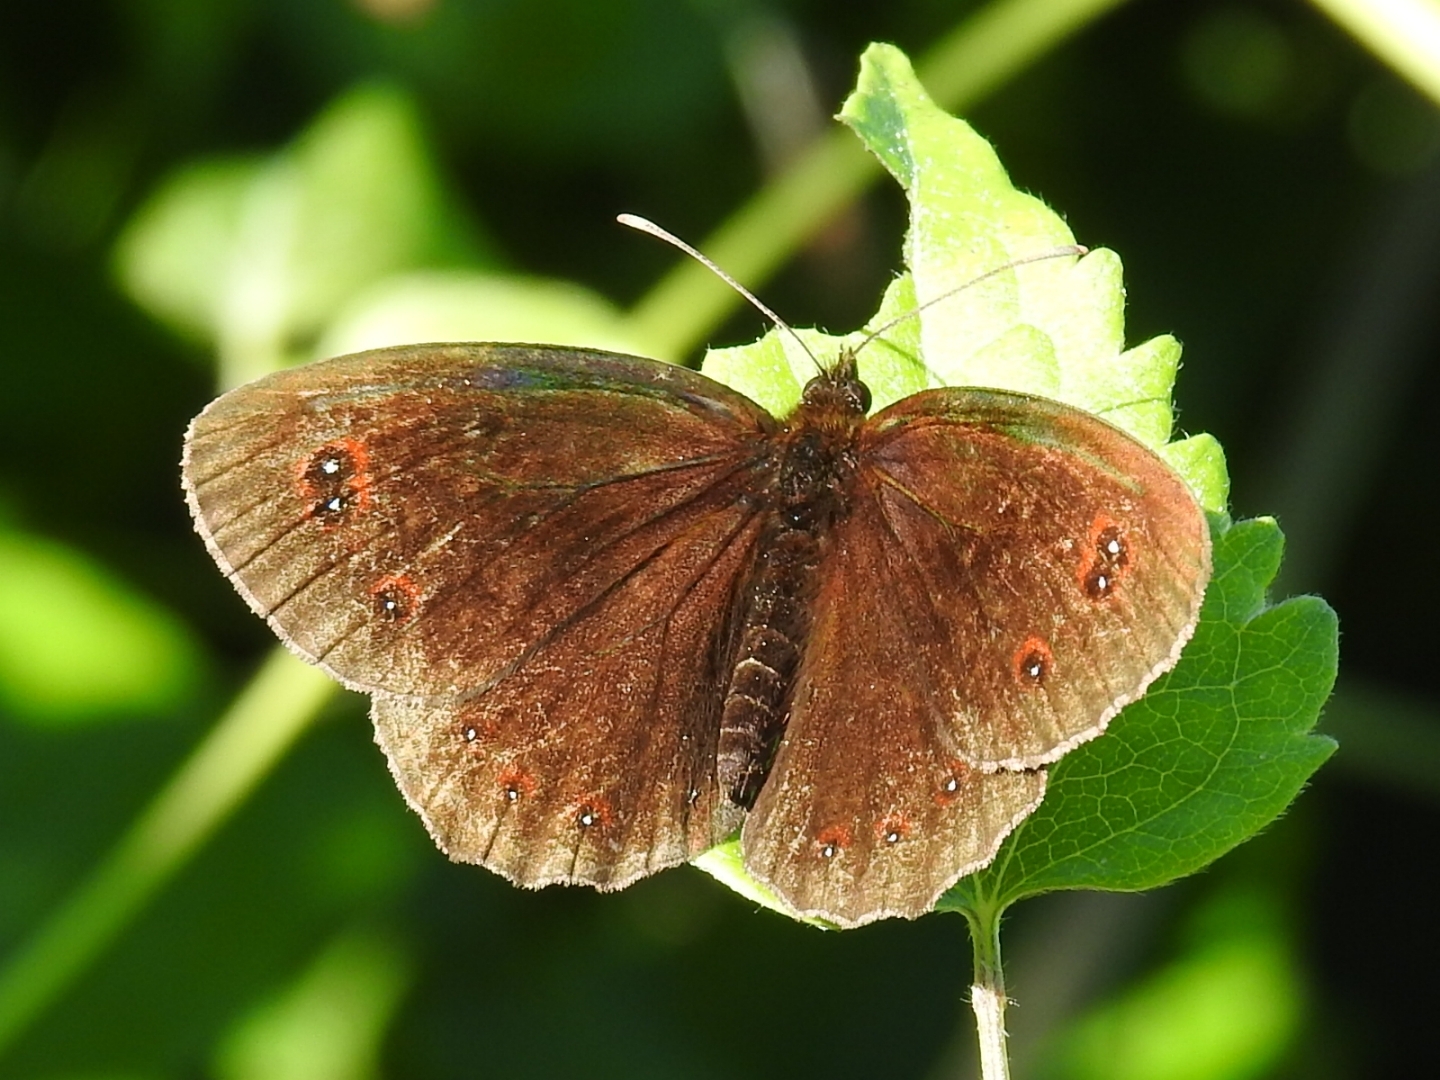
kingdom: Animalia
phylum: Arthropoda
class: Insecta
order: Lepidoptera
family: Nymphalidae
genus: Erebia
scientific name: Erebia aethiops
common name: Scotch argus
